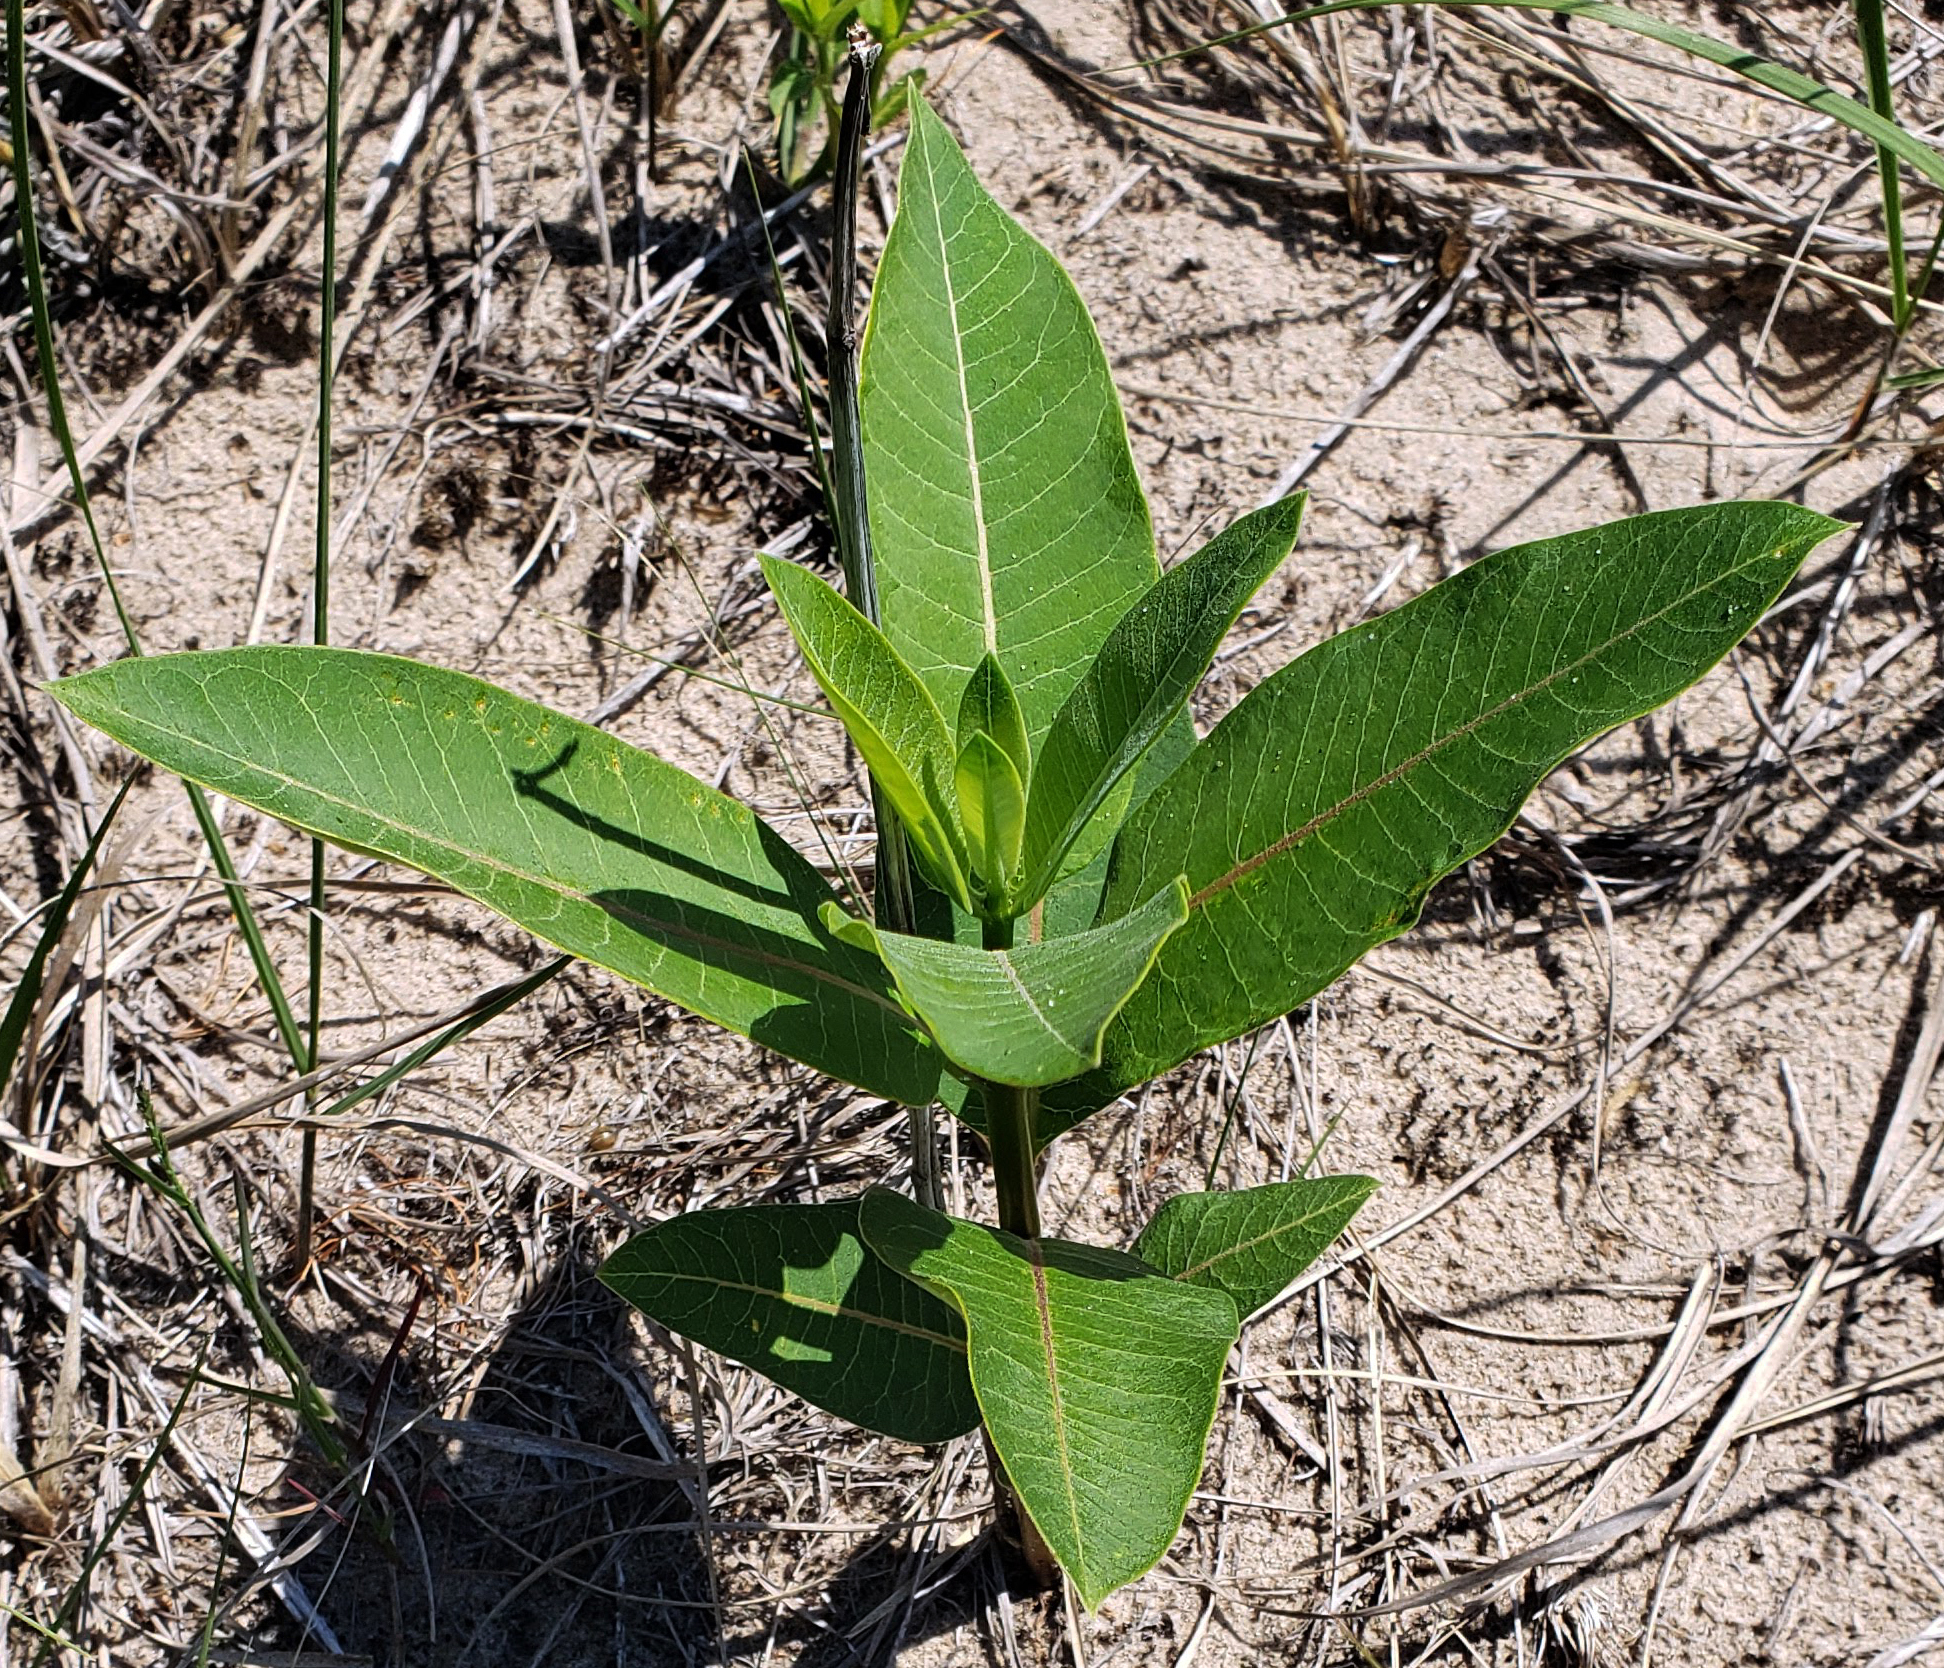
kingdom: Plantae
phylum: Tracheophyta
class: Magnoliopsida
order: Gentianales
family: Apocynaceae
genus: Asclepias
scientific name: Asclepias syriaca
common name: Common milkweed
